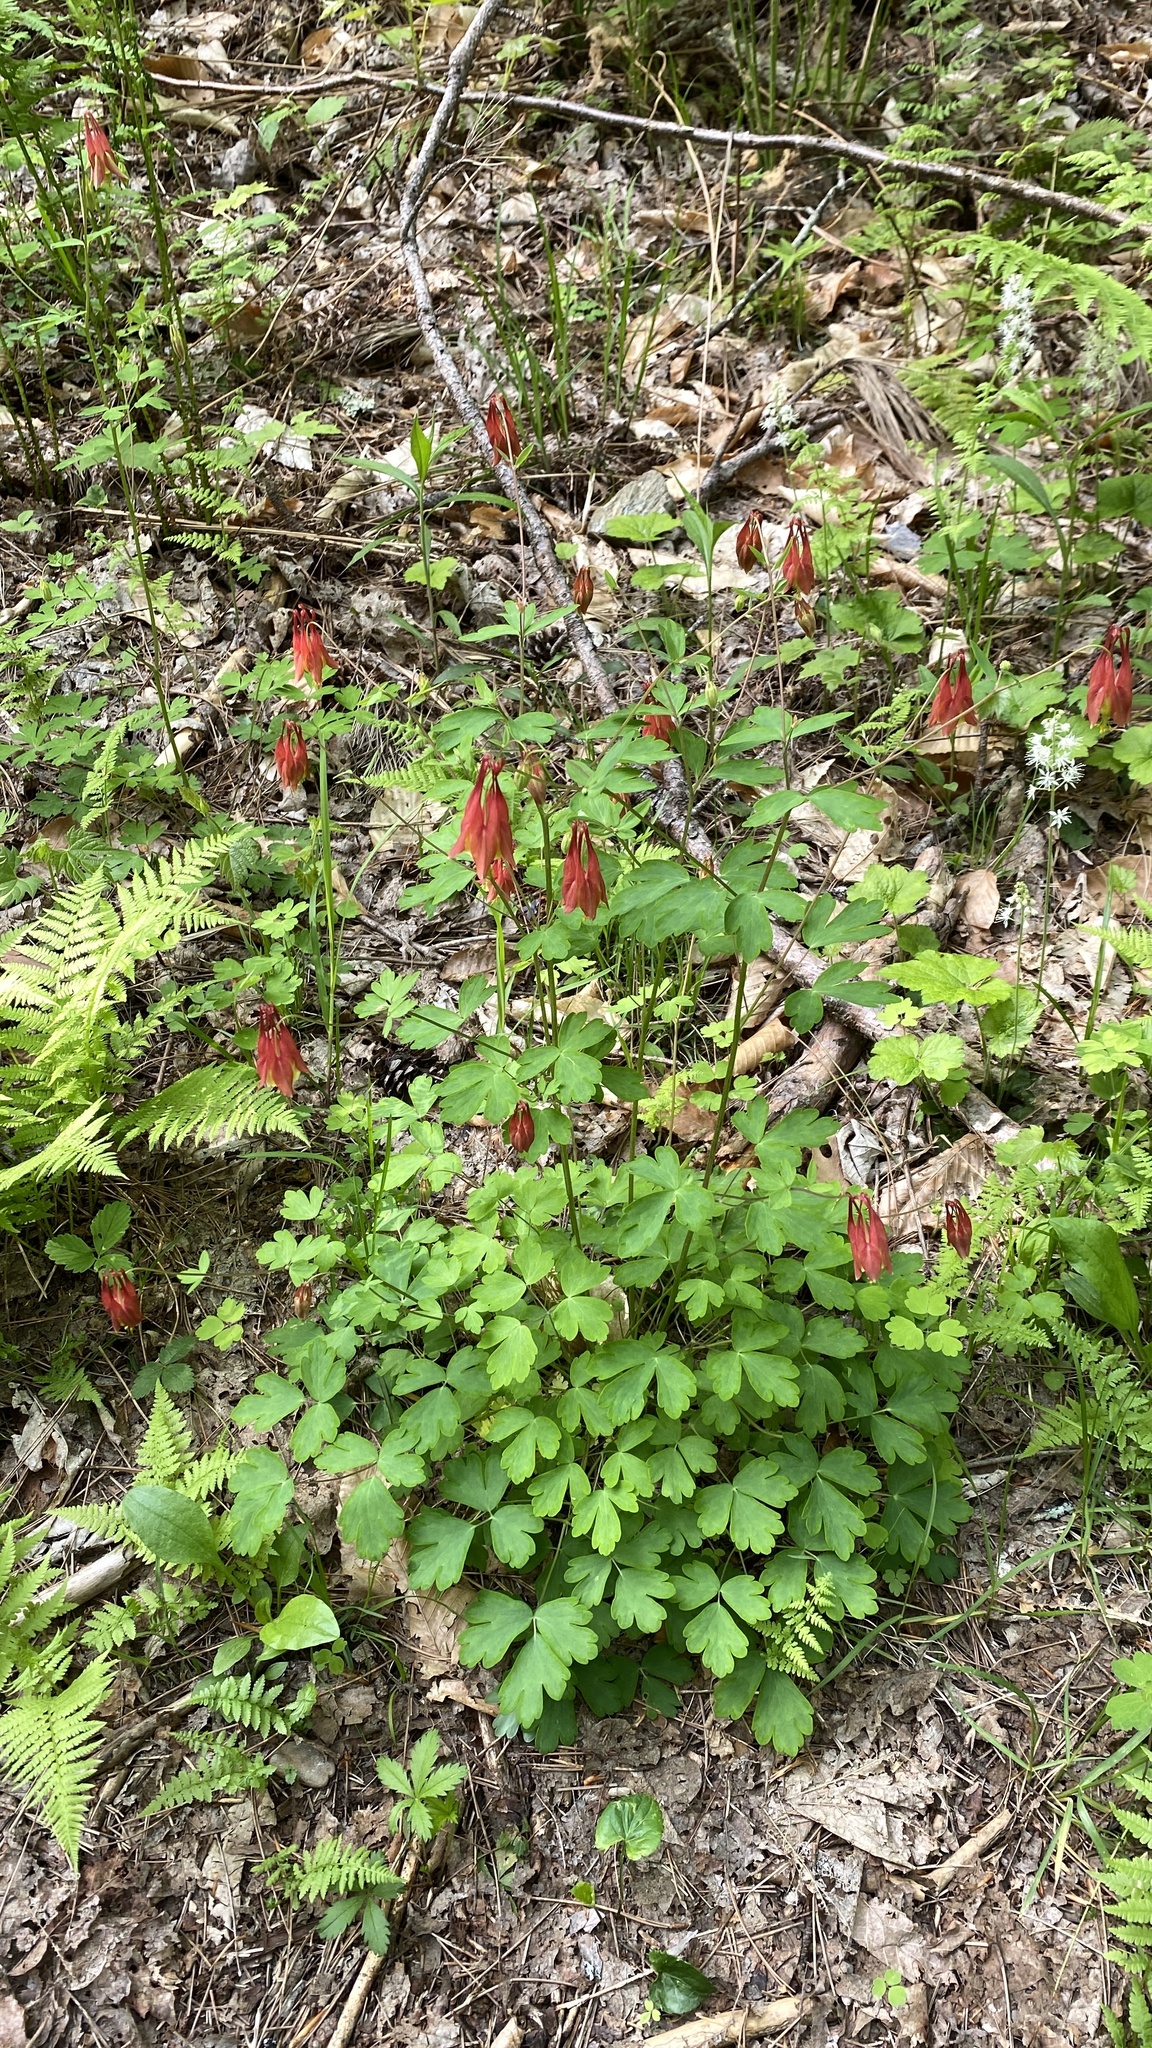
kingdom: Plantae
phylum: Tracheophyta
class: Magnoliopsida
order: Ranunculales
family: Ranunculaceae
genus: Aquilegia
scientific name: Aquilegia canadensis
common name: American columbine
